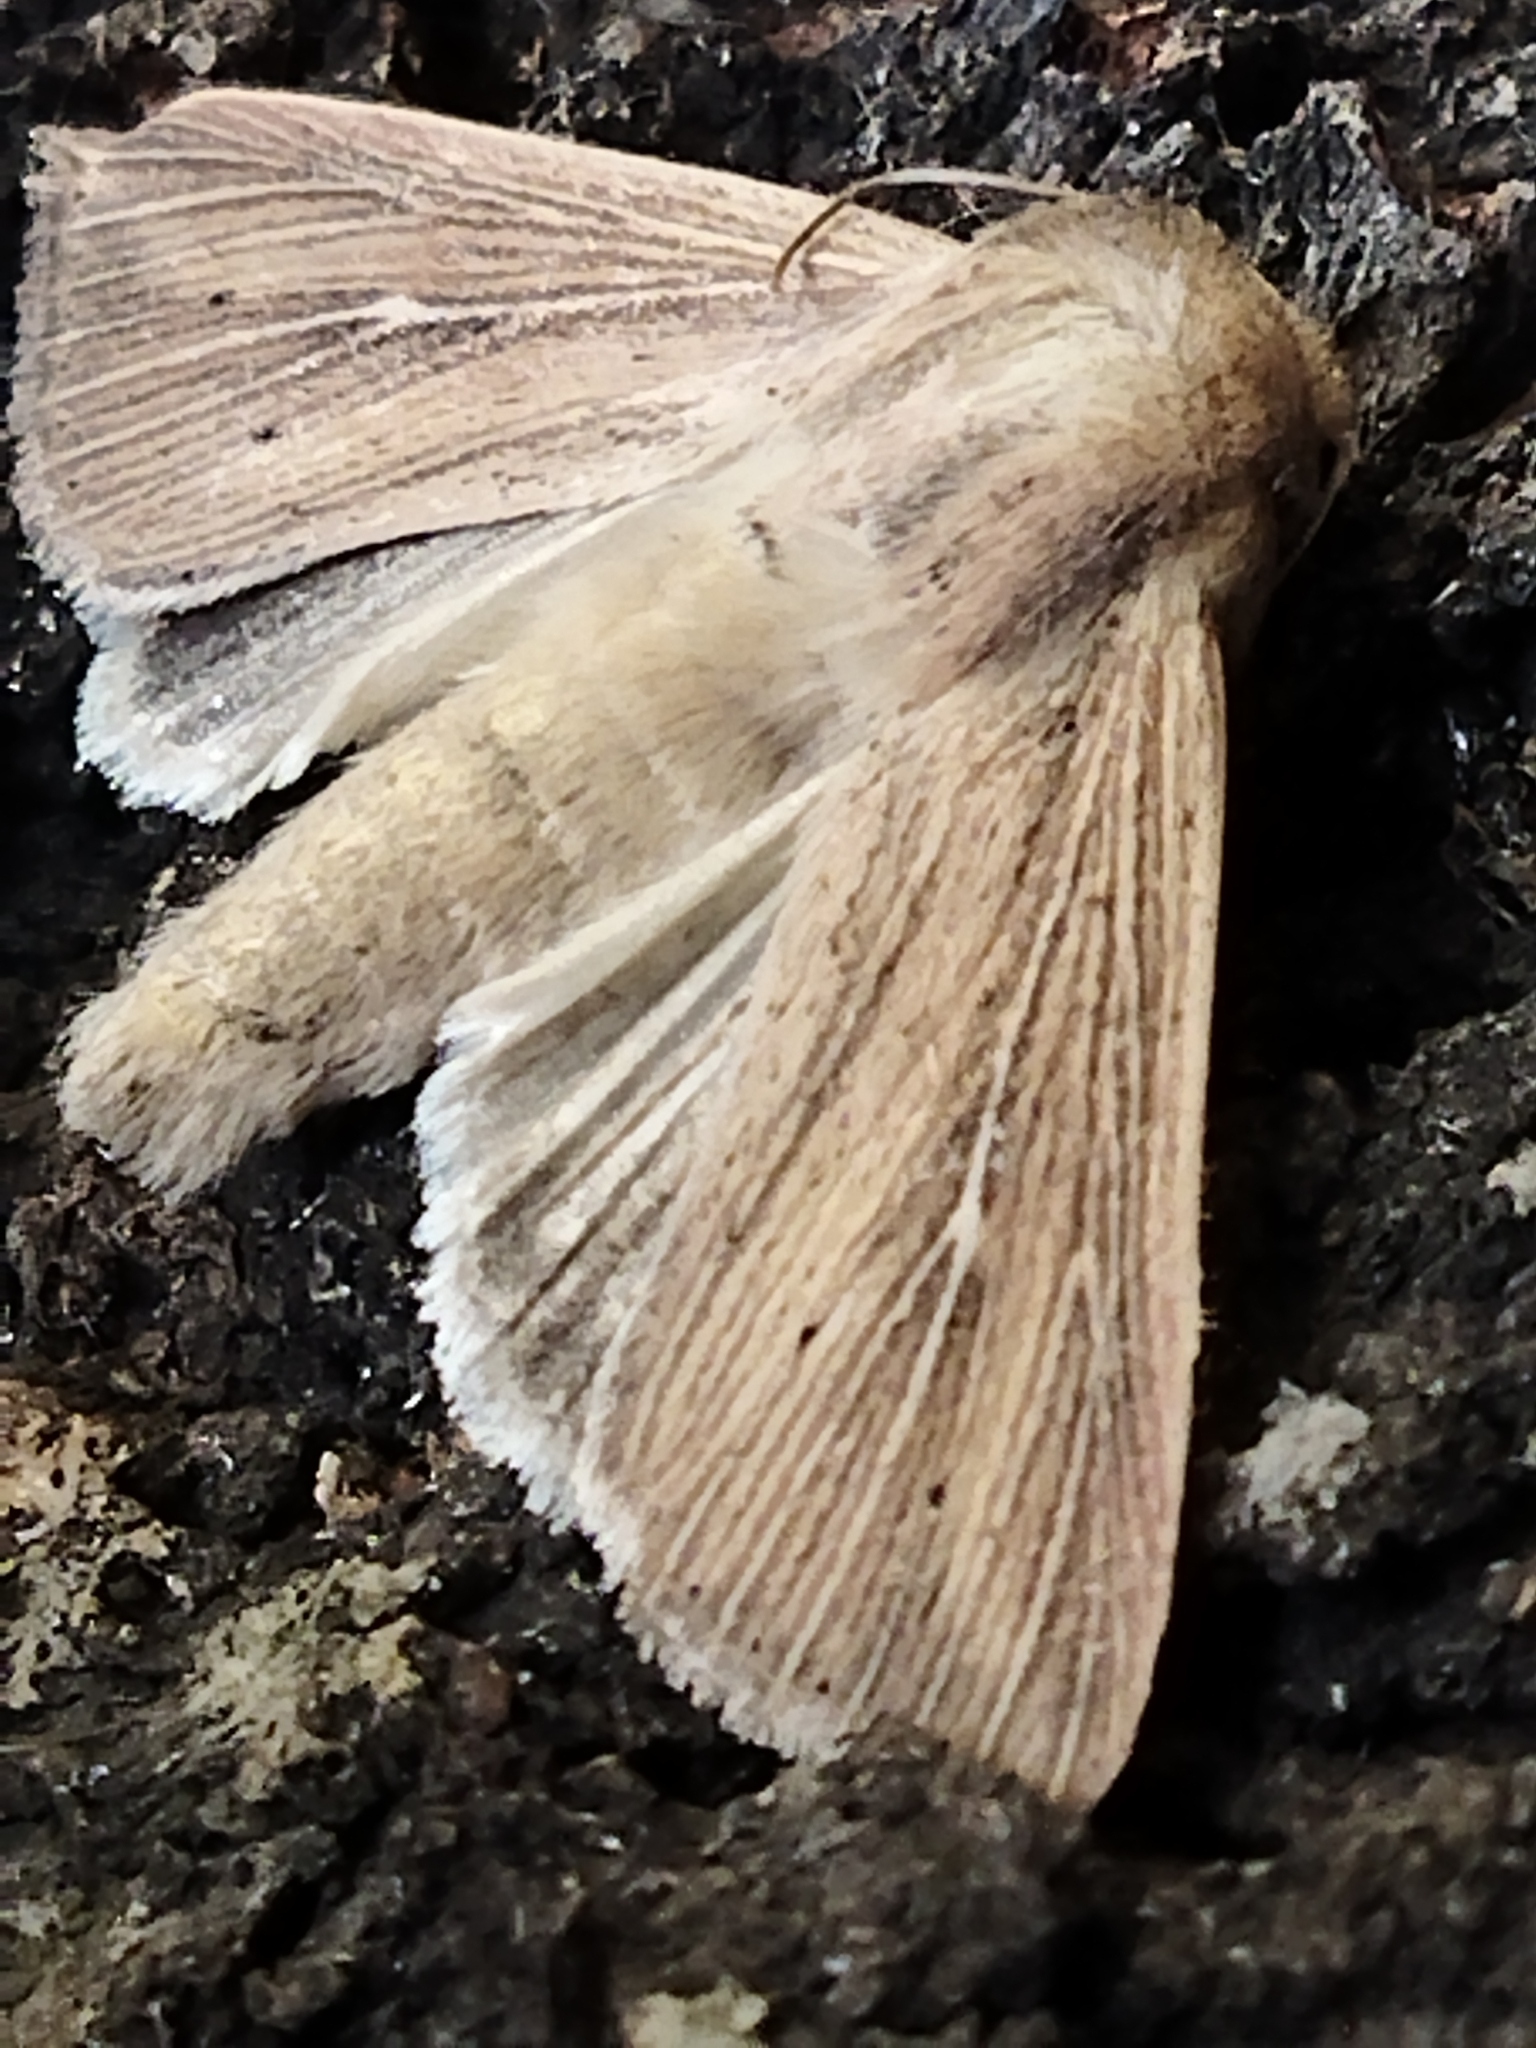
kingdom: Animalia
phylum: Arthropoda
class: Insecta
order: Lepidoptera
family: Noctuidae
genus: Mythimna
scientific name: Mythimna congrua
